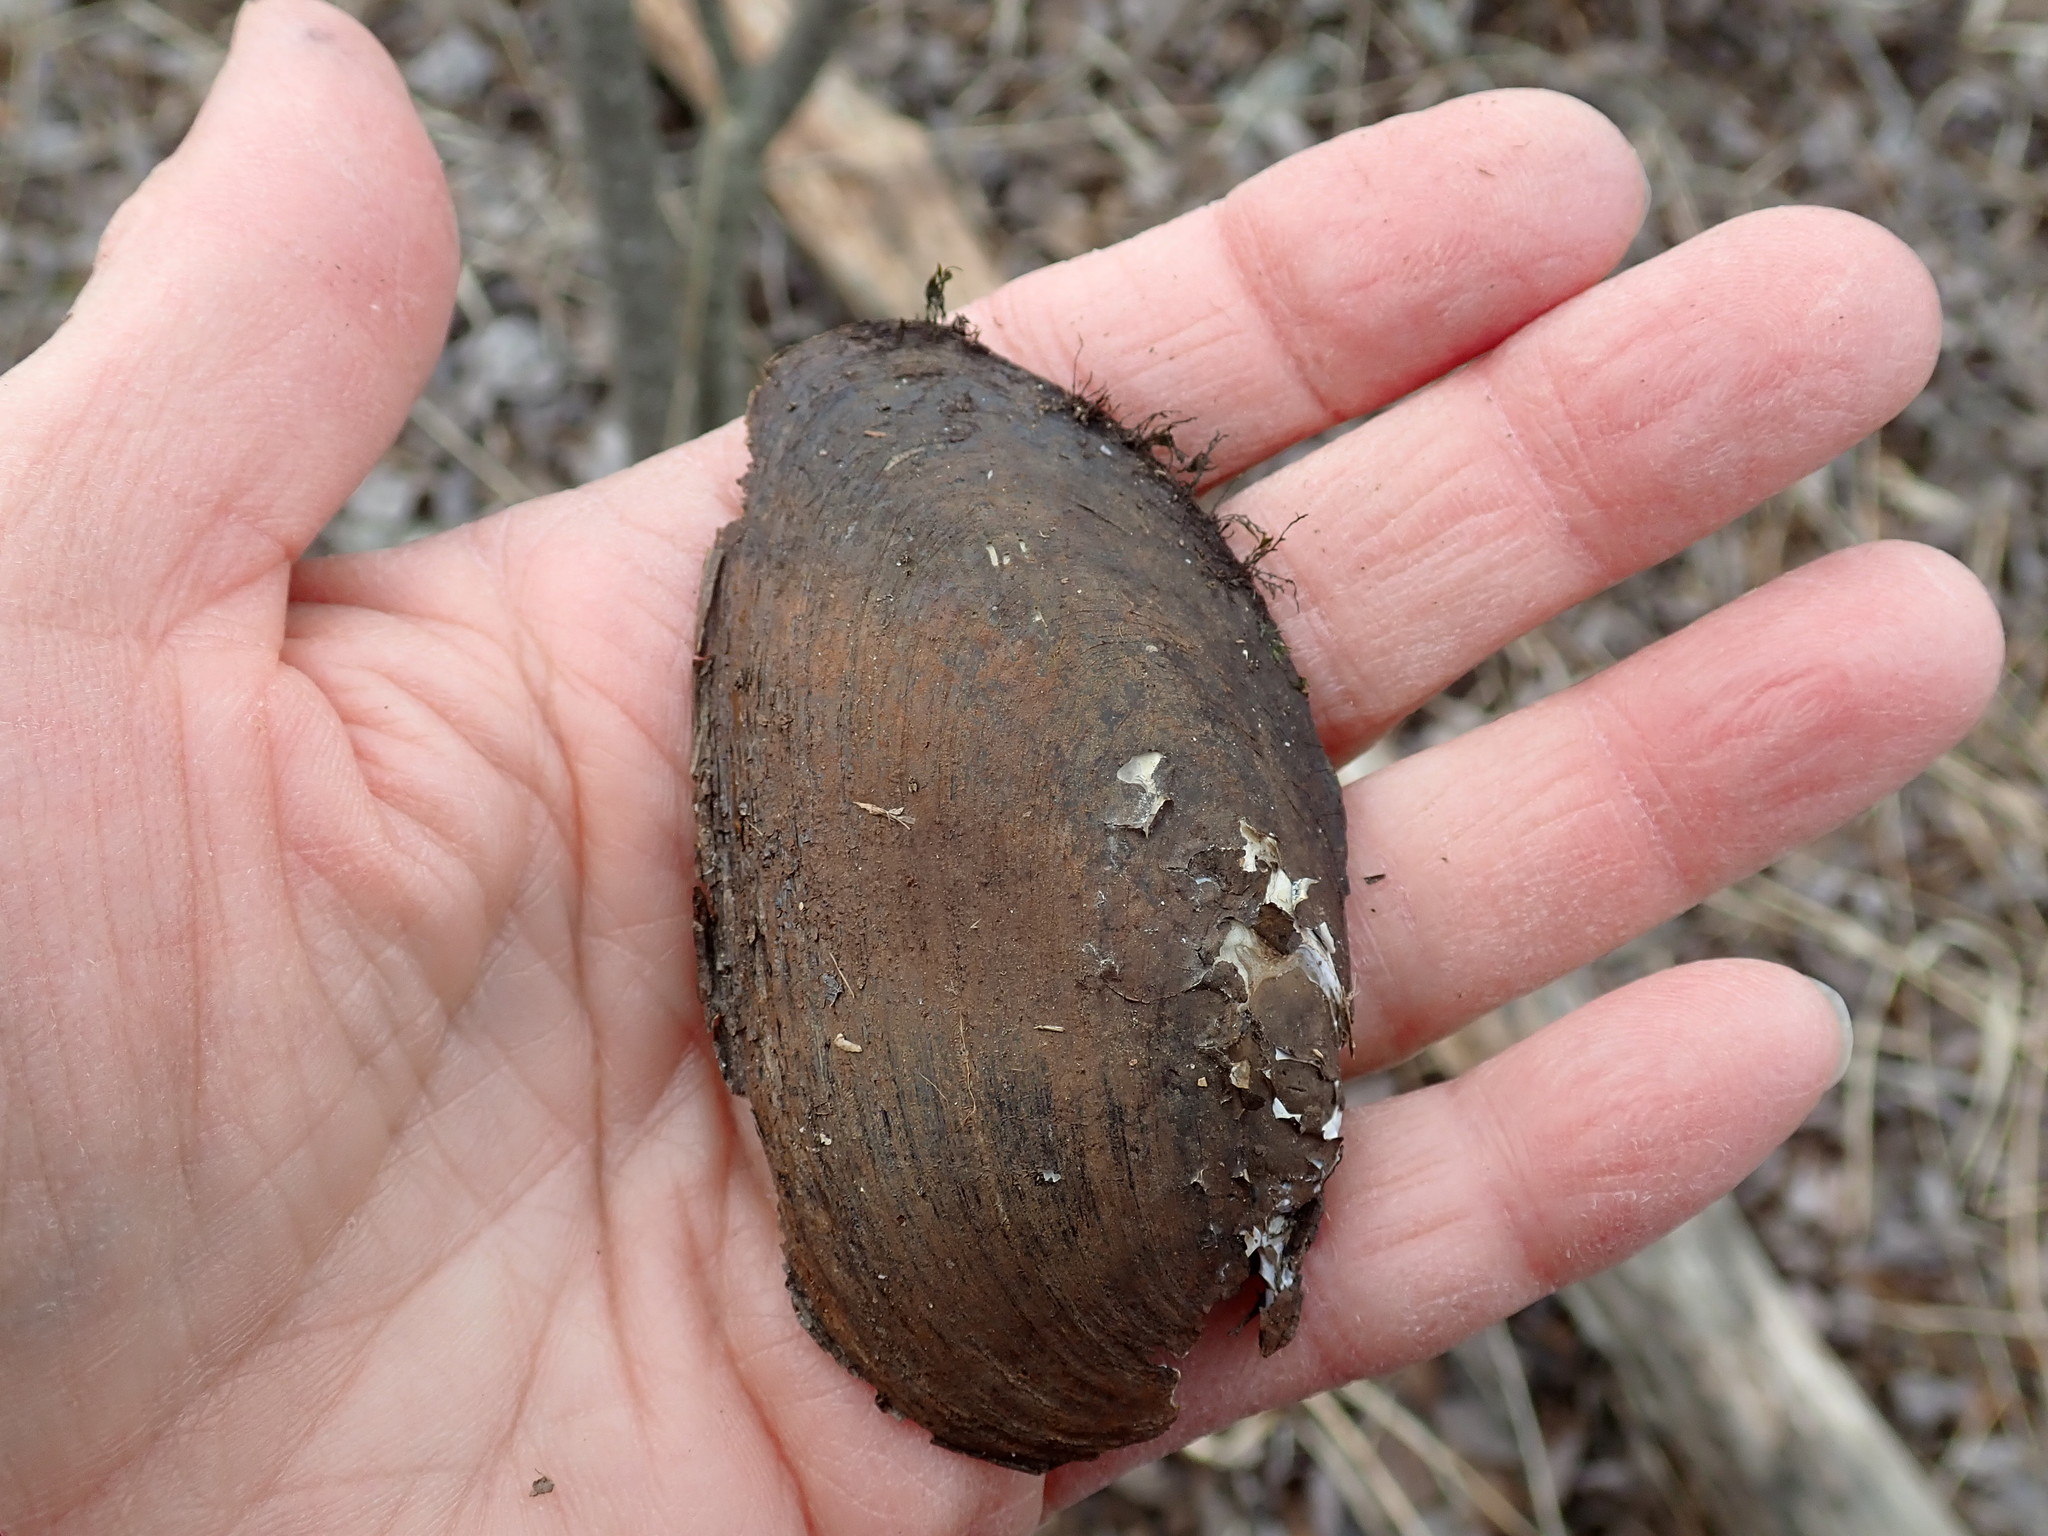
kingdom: Animalia
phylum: Mollusca
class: Bivalvia
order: Unionida
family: Unionidae
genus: Elliptio
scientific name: Elliptio complanata
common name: Eastern elliptio
